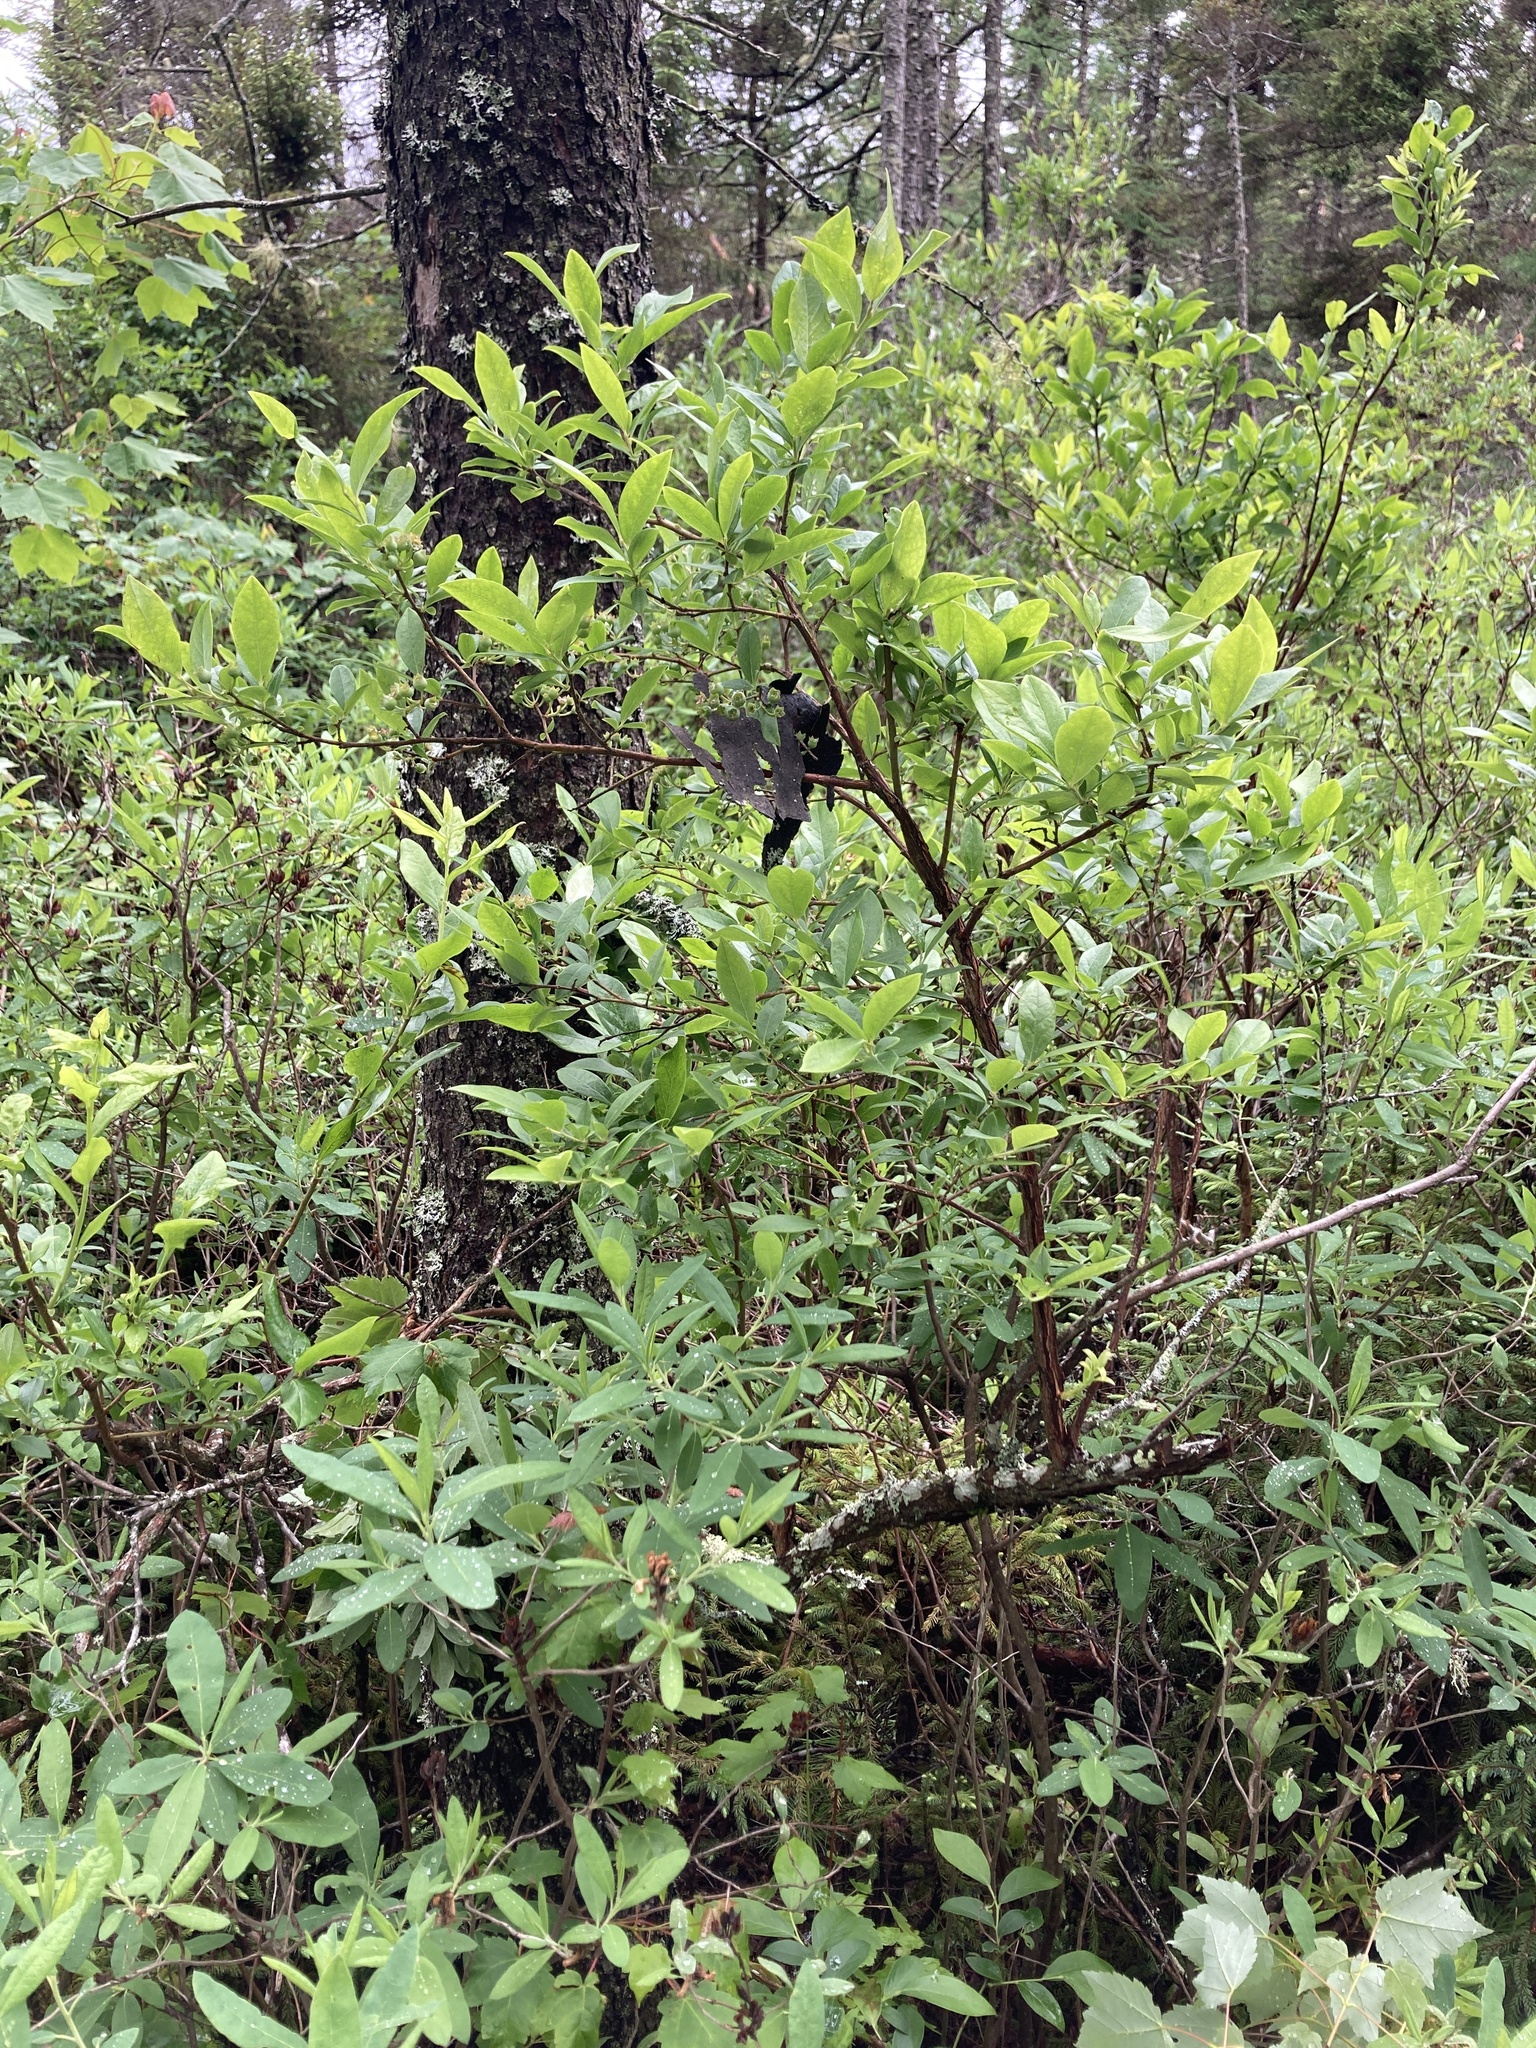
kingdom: Plantae
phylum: Tracheophyta
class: Magnoliopsida
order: Ericales
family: Ericaceae
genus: Vaccinium
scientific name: Vaccinium corymbosum
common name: Blueberry
